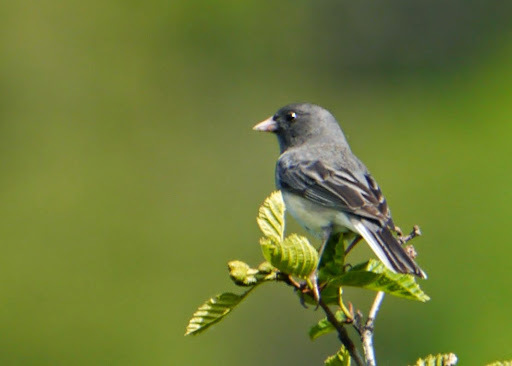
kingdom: Animalia
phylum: Chordata
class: Aves
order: Passeriformes
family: Passerellidae
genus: Junco
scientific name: Junco hyemalis
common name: Dark-eyed junco
